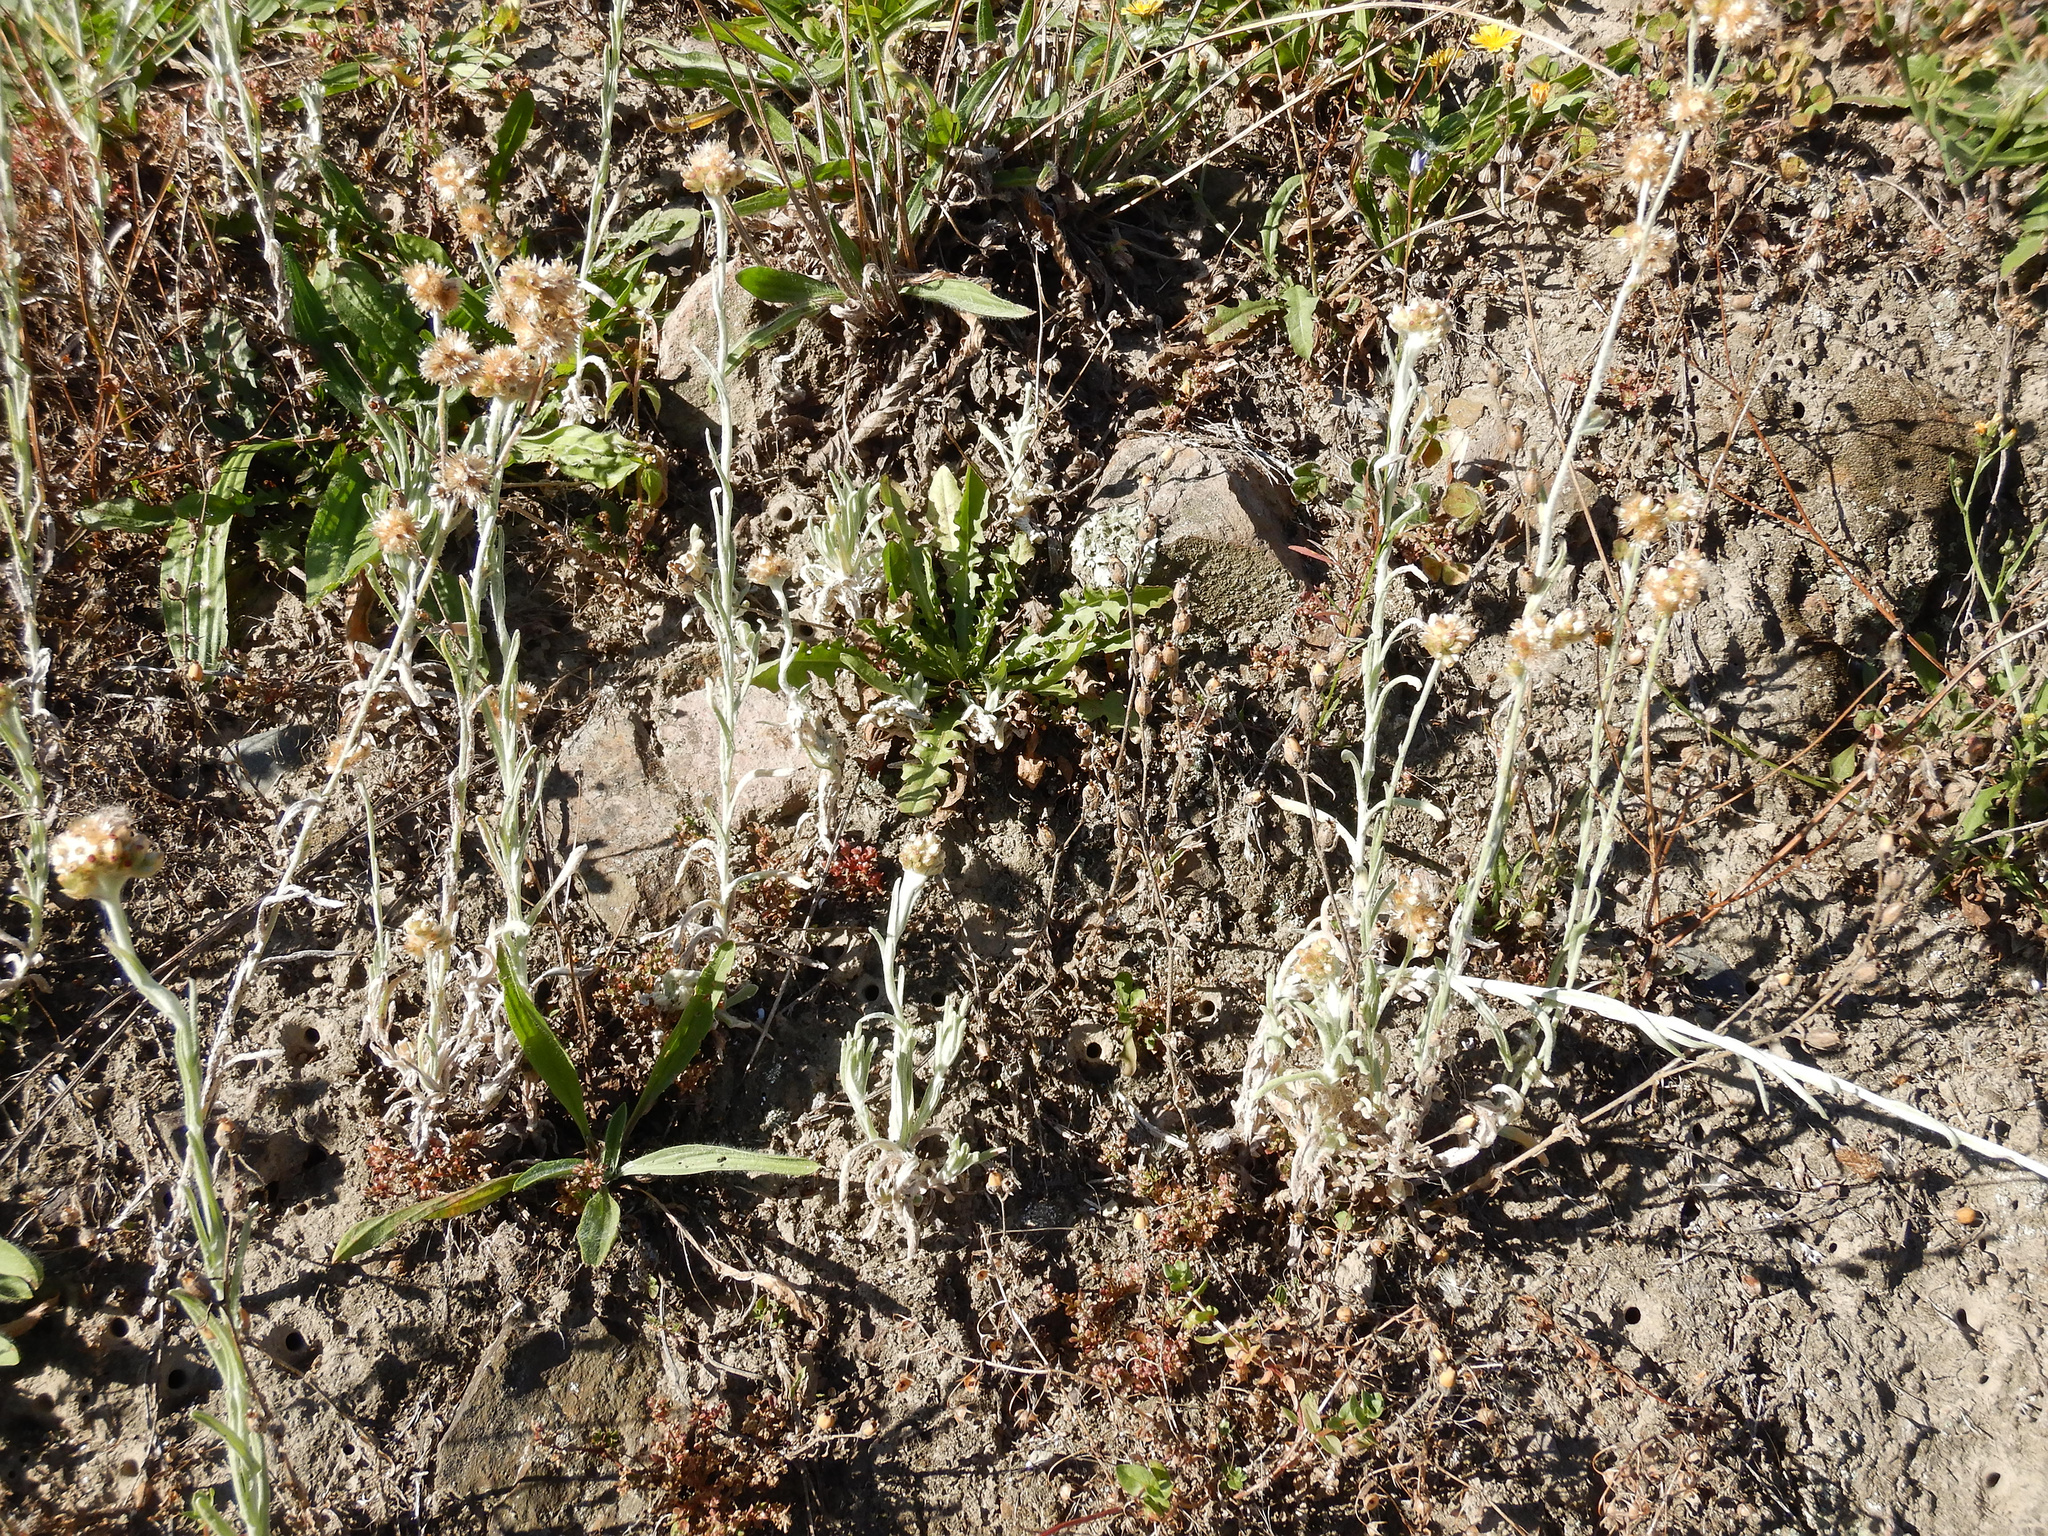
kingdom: Plantae
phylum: Tracheophyta
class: Magnoliopsida
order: Asterales
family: Asteraceae
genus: Helichrysum
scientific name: Helichrysum luteoalbum
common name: Daisy
